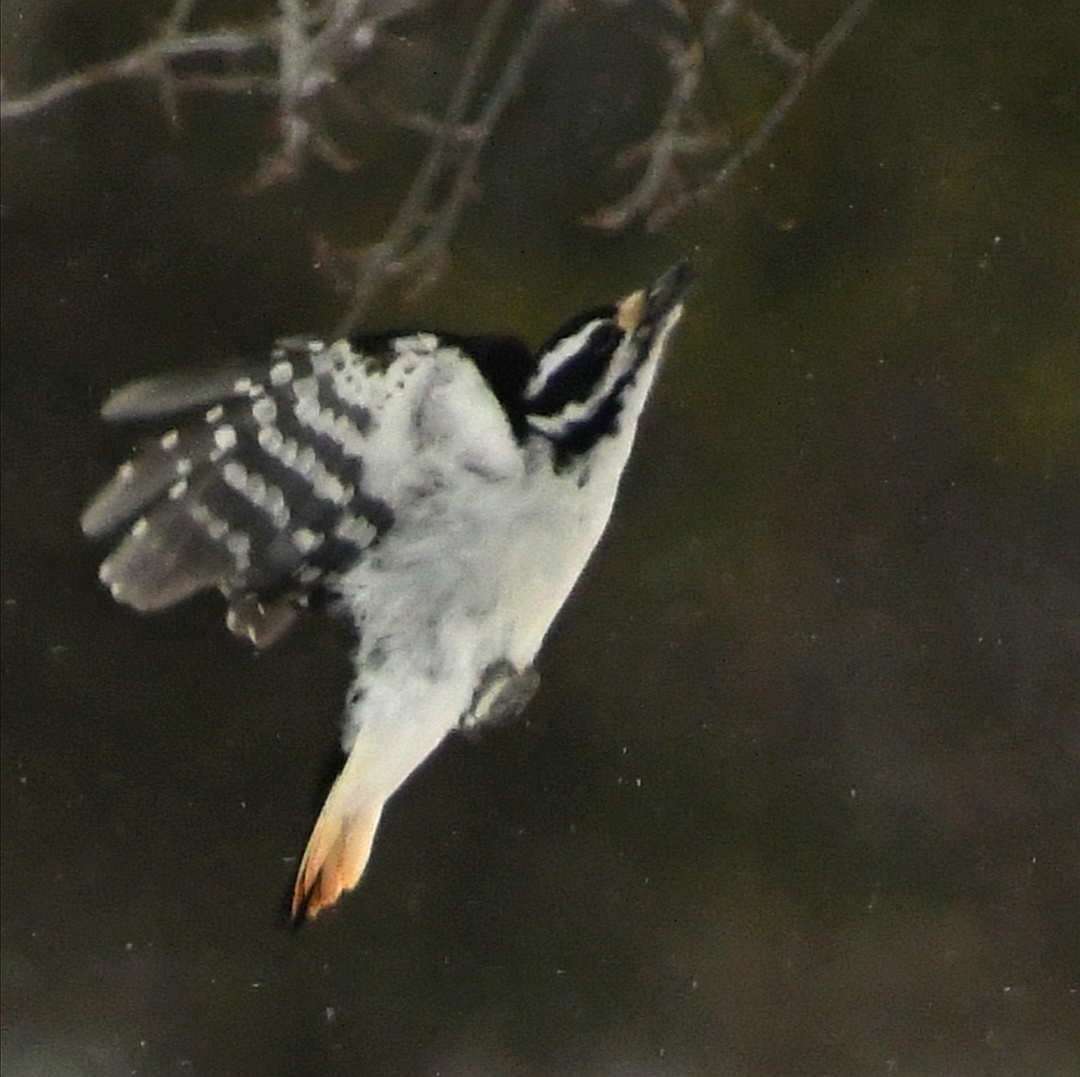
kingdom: Animalia
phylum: Chordata
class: Aves
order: Piciformes
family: Picidae
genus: Leuconotopicus
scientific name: Leuconotopicus villosus
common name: Hairy woodpecker
